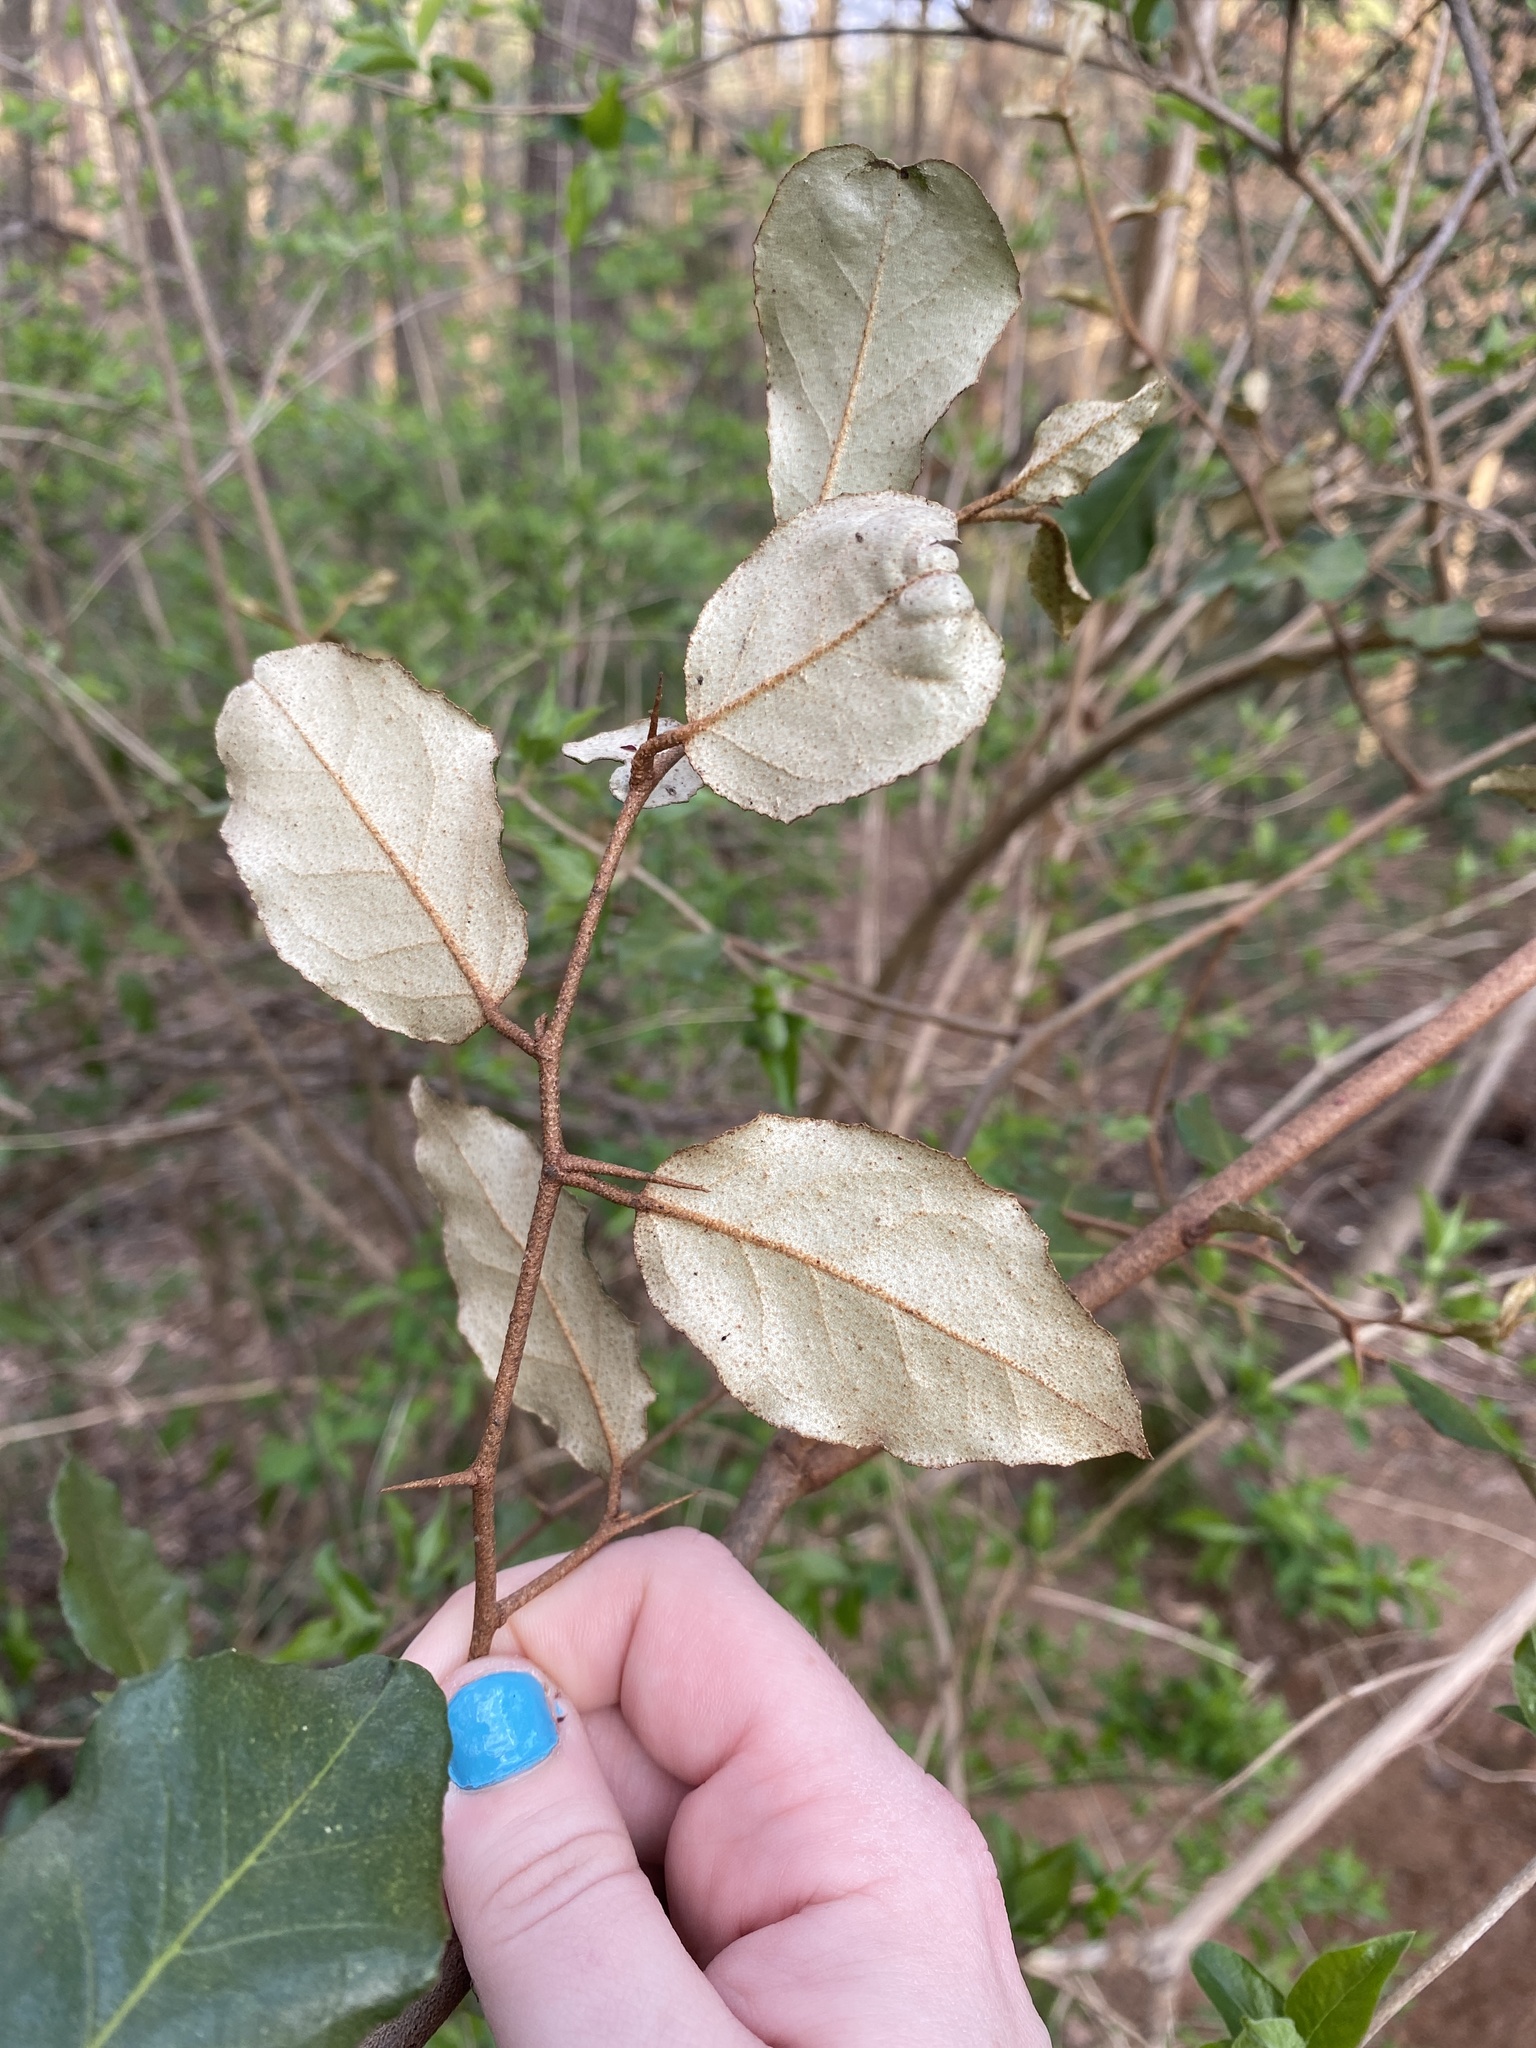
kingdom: Plantae
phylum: Tracheophyta
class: Magnoliopsida
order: Rosales
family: Elaeagnaceae
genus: Elaeagnus
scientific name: Elaeagnus pungens
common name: Spiny oleaster
